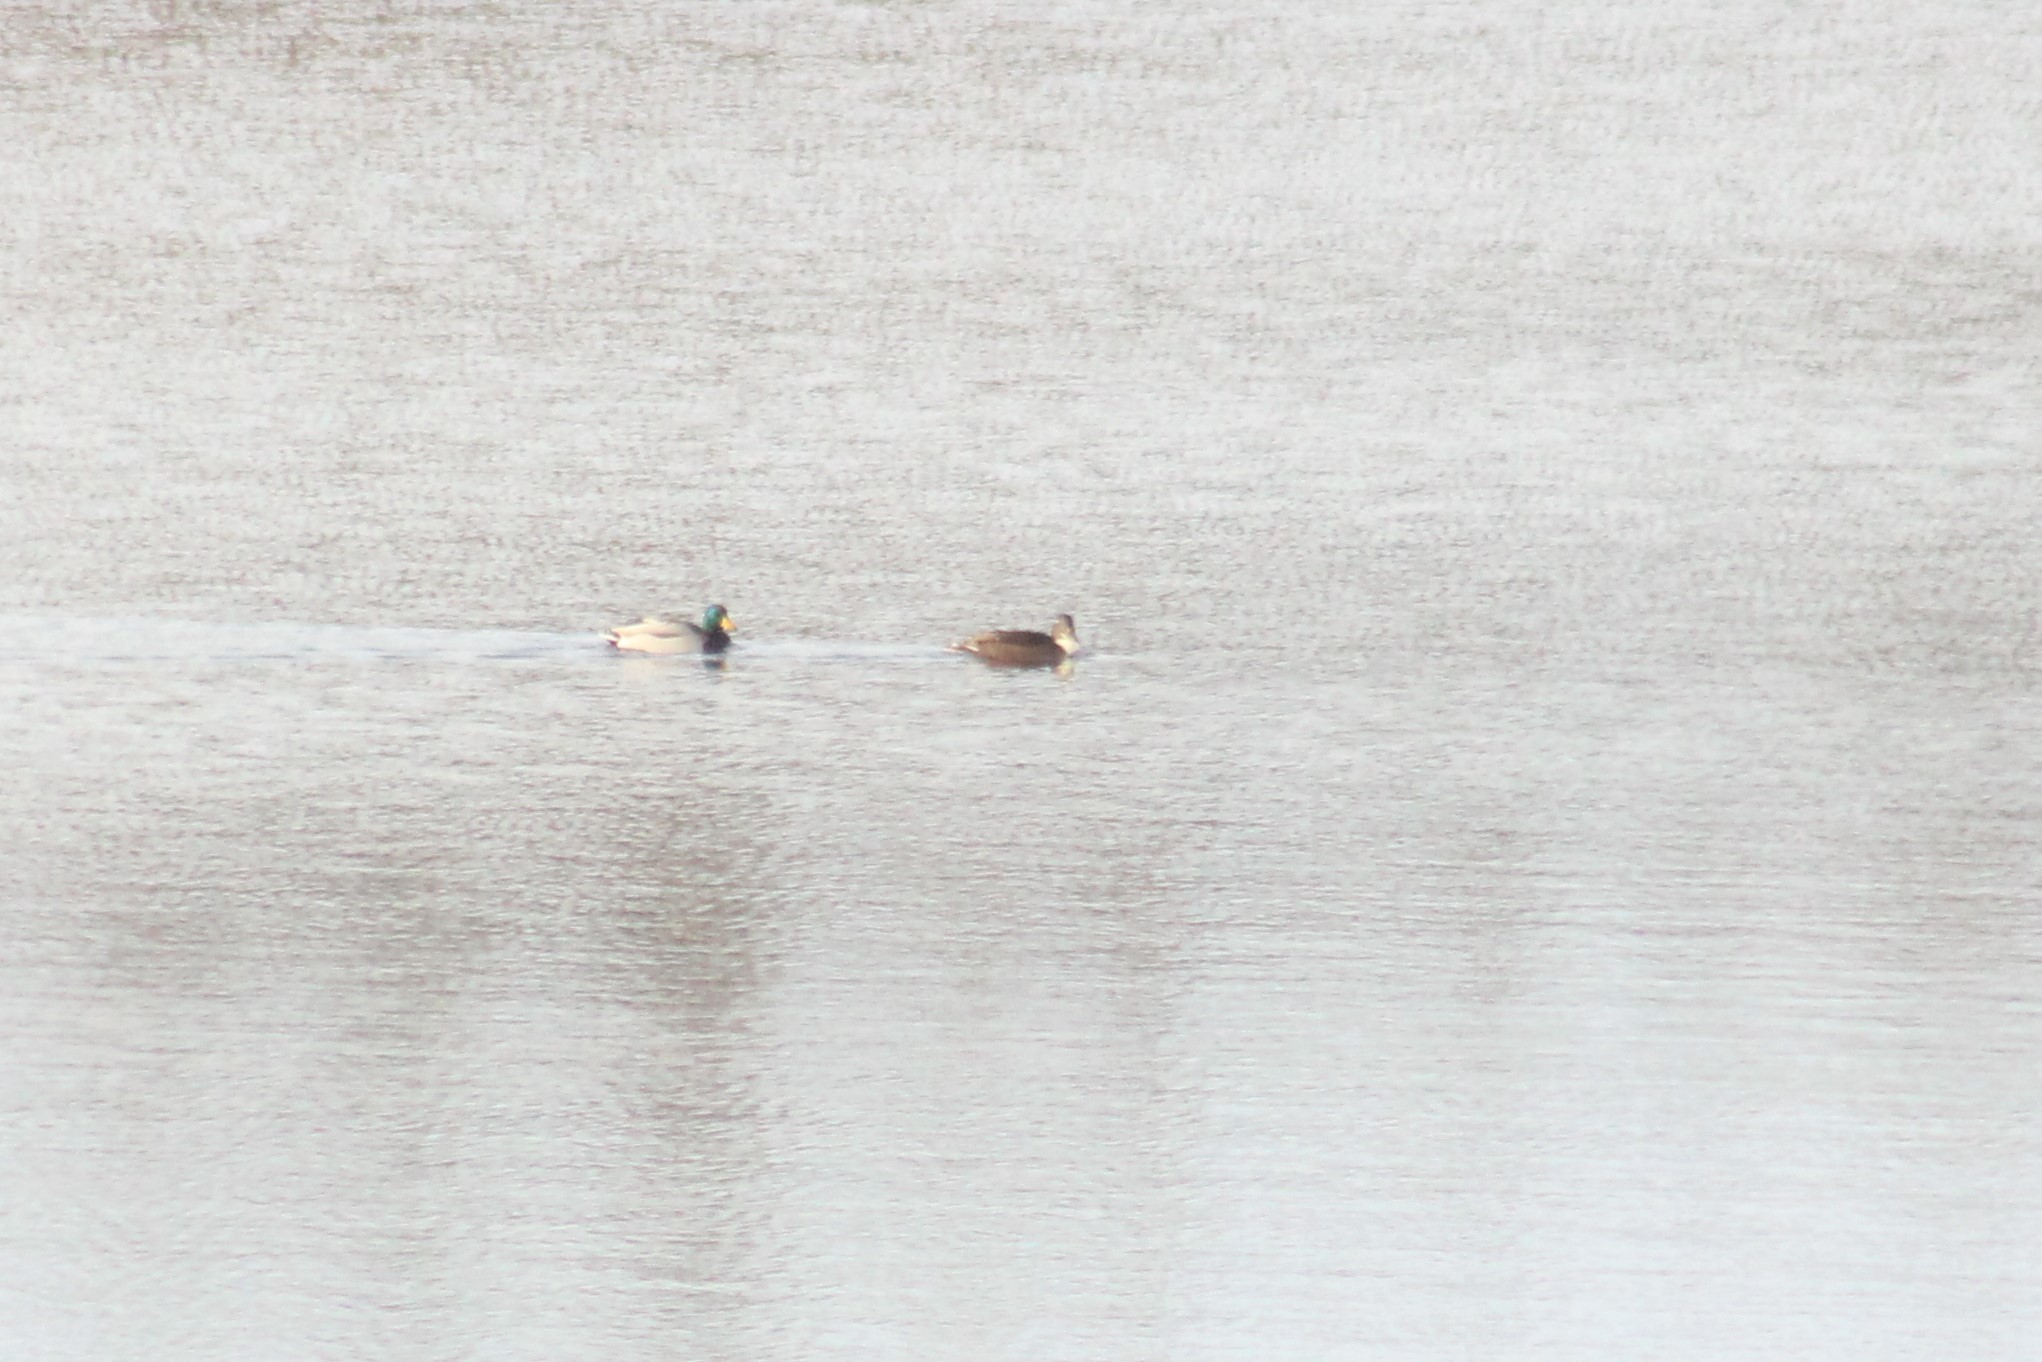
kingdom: Animalia
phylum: Chordata
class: Aves
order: Anseriformes
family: Anatidae
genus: Anas
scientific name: Anas platyrhynchos
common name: Mallard
